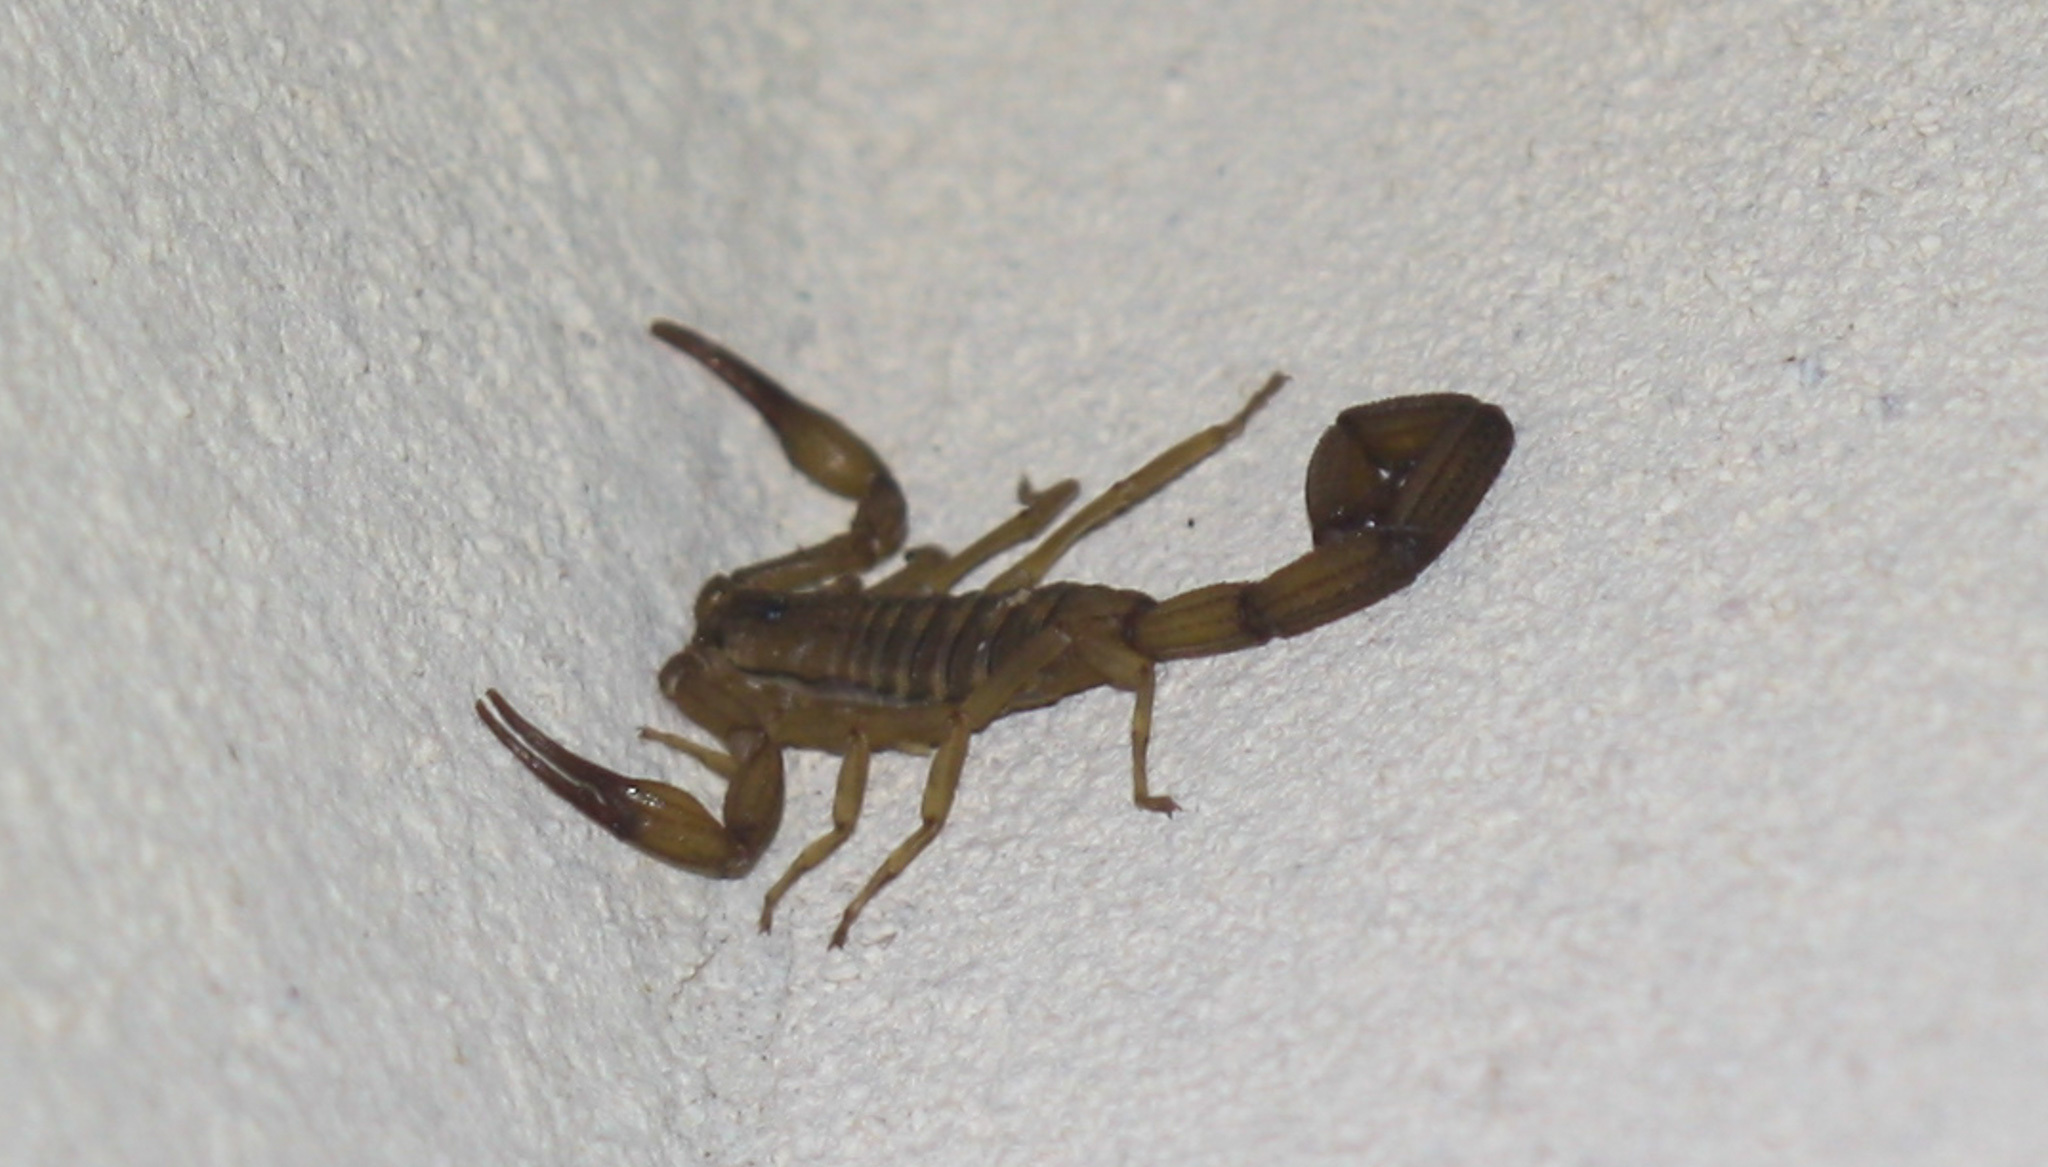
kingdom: Animalia
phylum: Arthropoda
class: Arachnida
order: Scorpiones
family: Buthidae
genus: Centruroides
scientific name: Centruroides koesteri
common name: Scorpions
